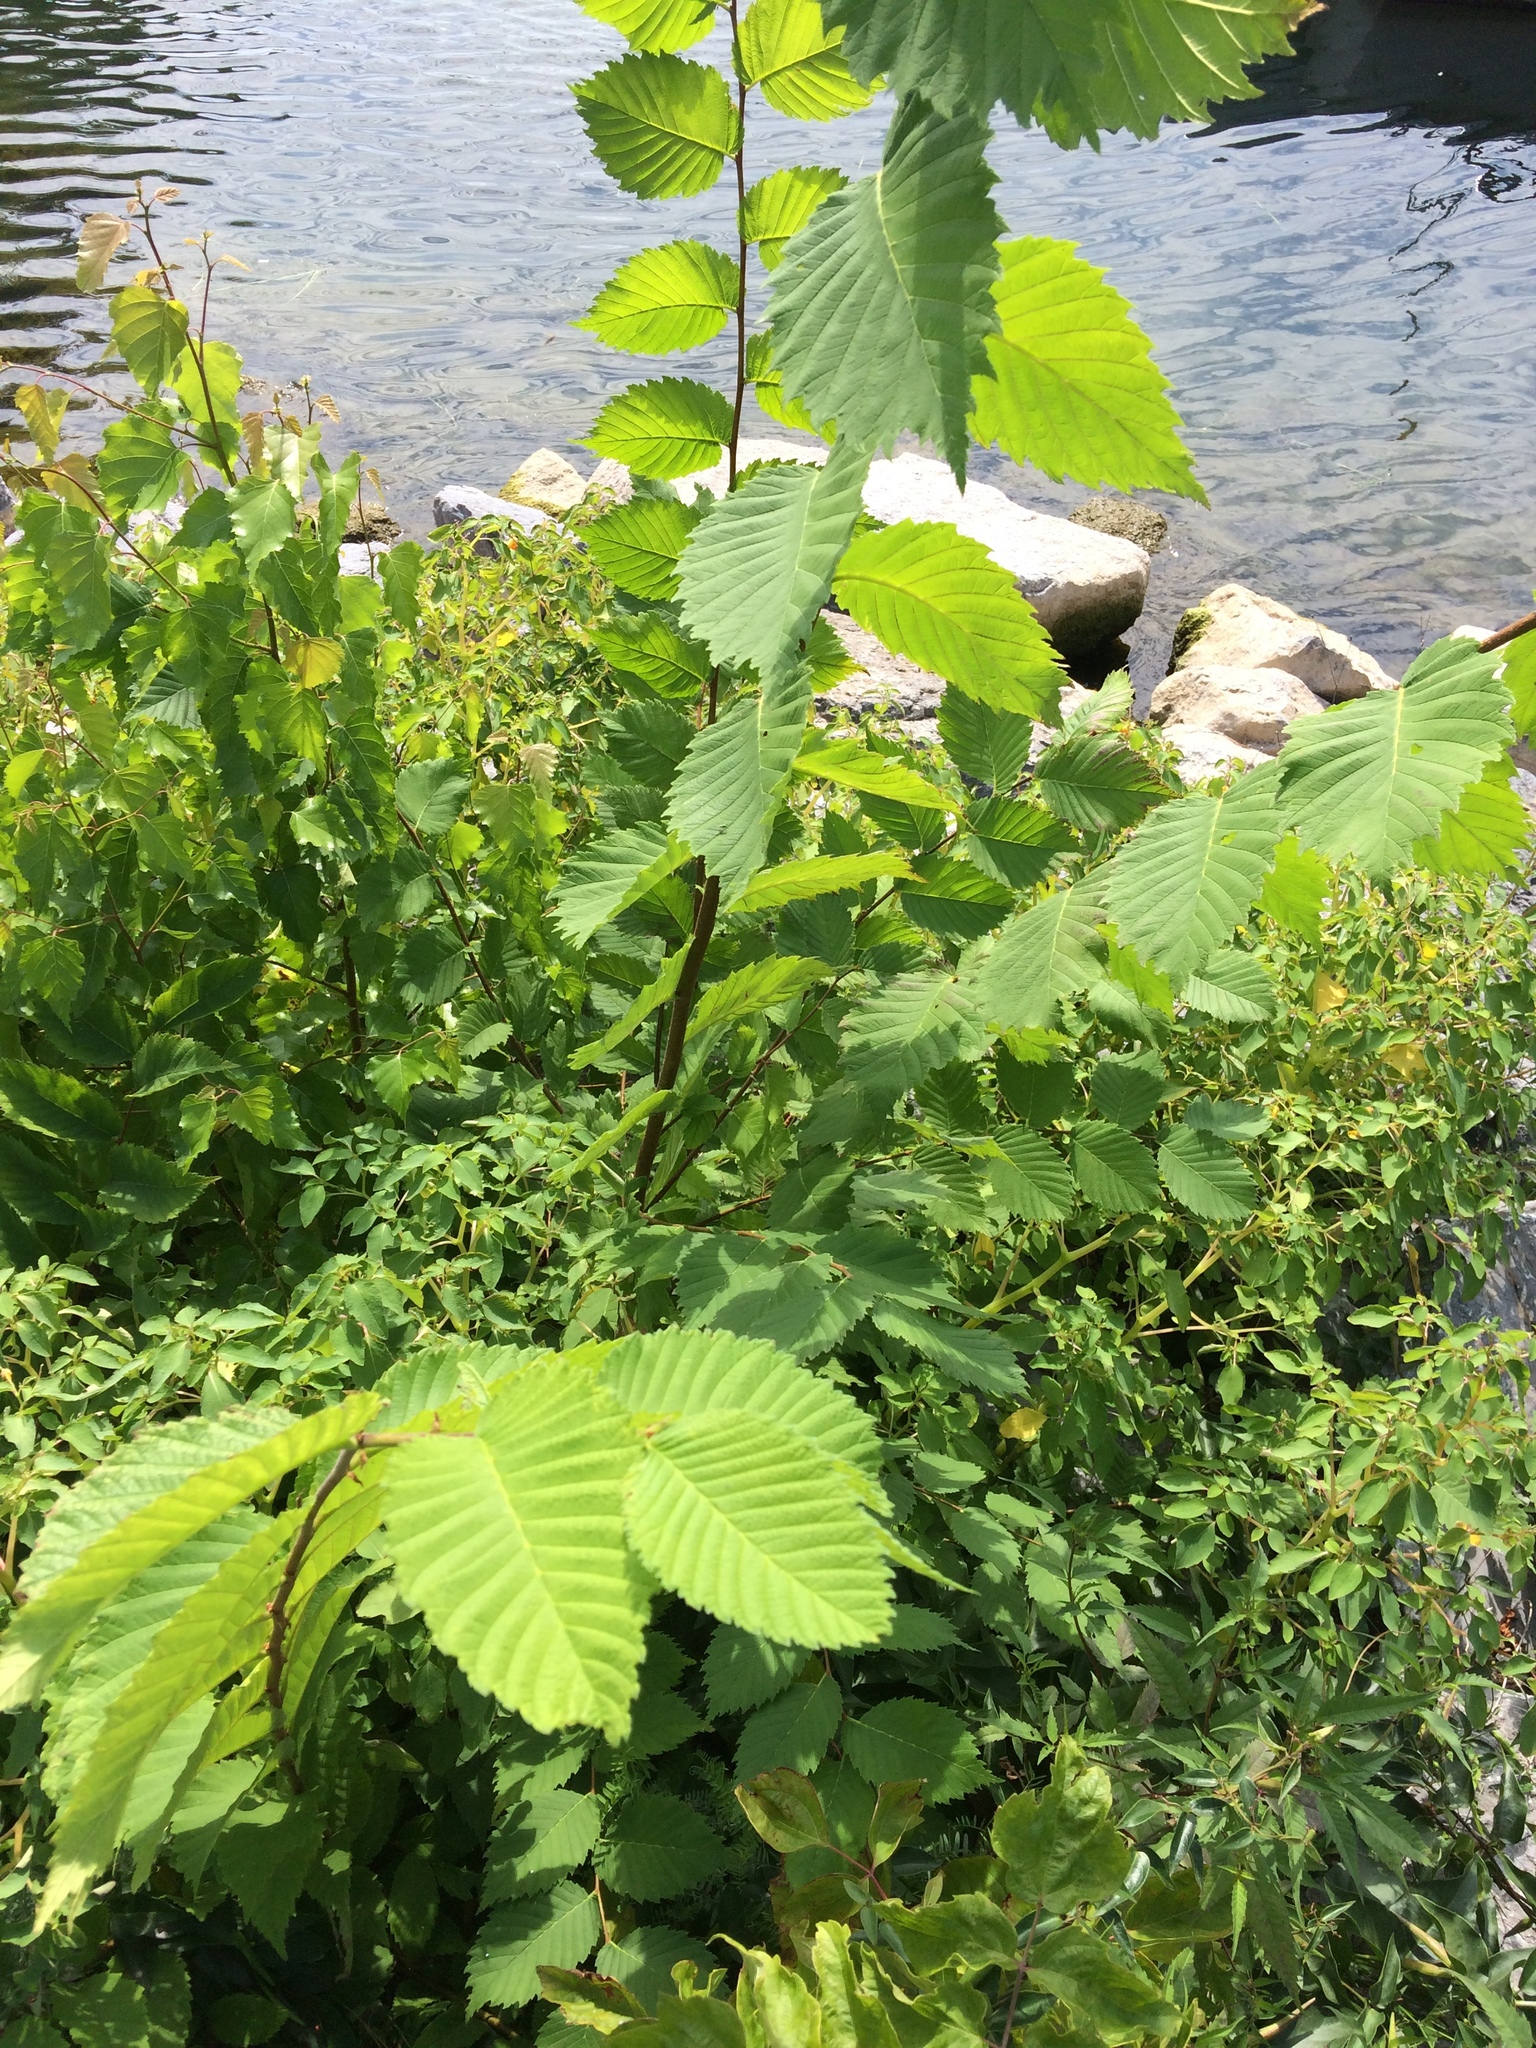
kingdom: Plantae
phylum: Tracheophyta
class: Magnoliopsida
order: Rosales
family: Ulmaceae
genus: Ulmus
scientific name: Ulmus americana
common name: American elm
